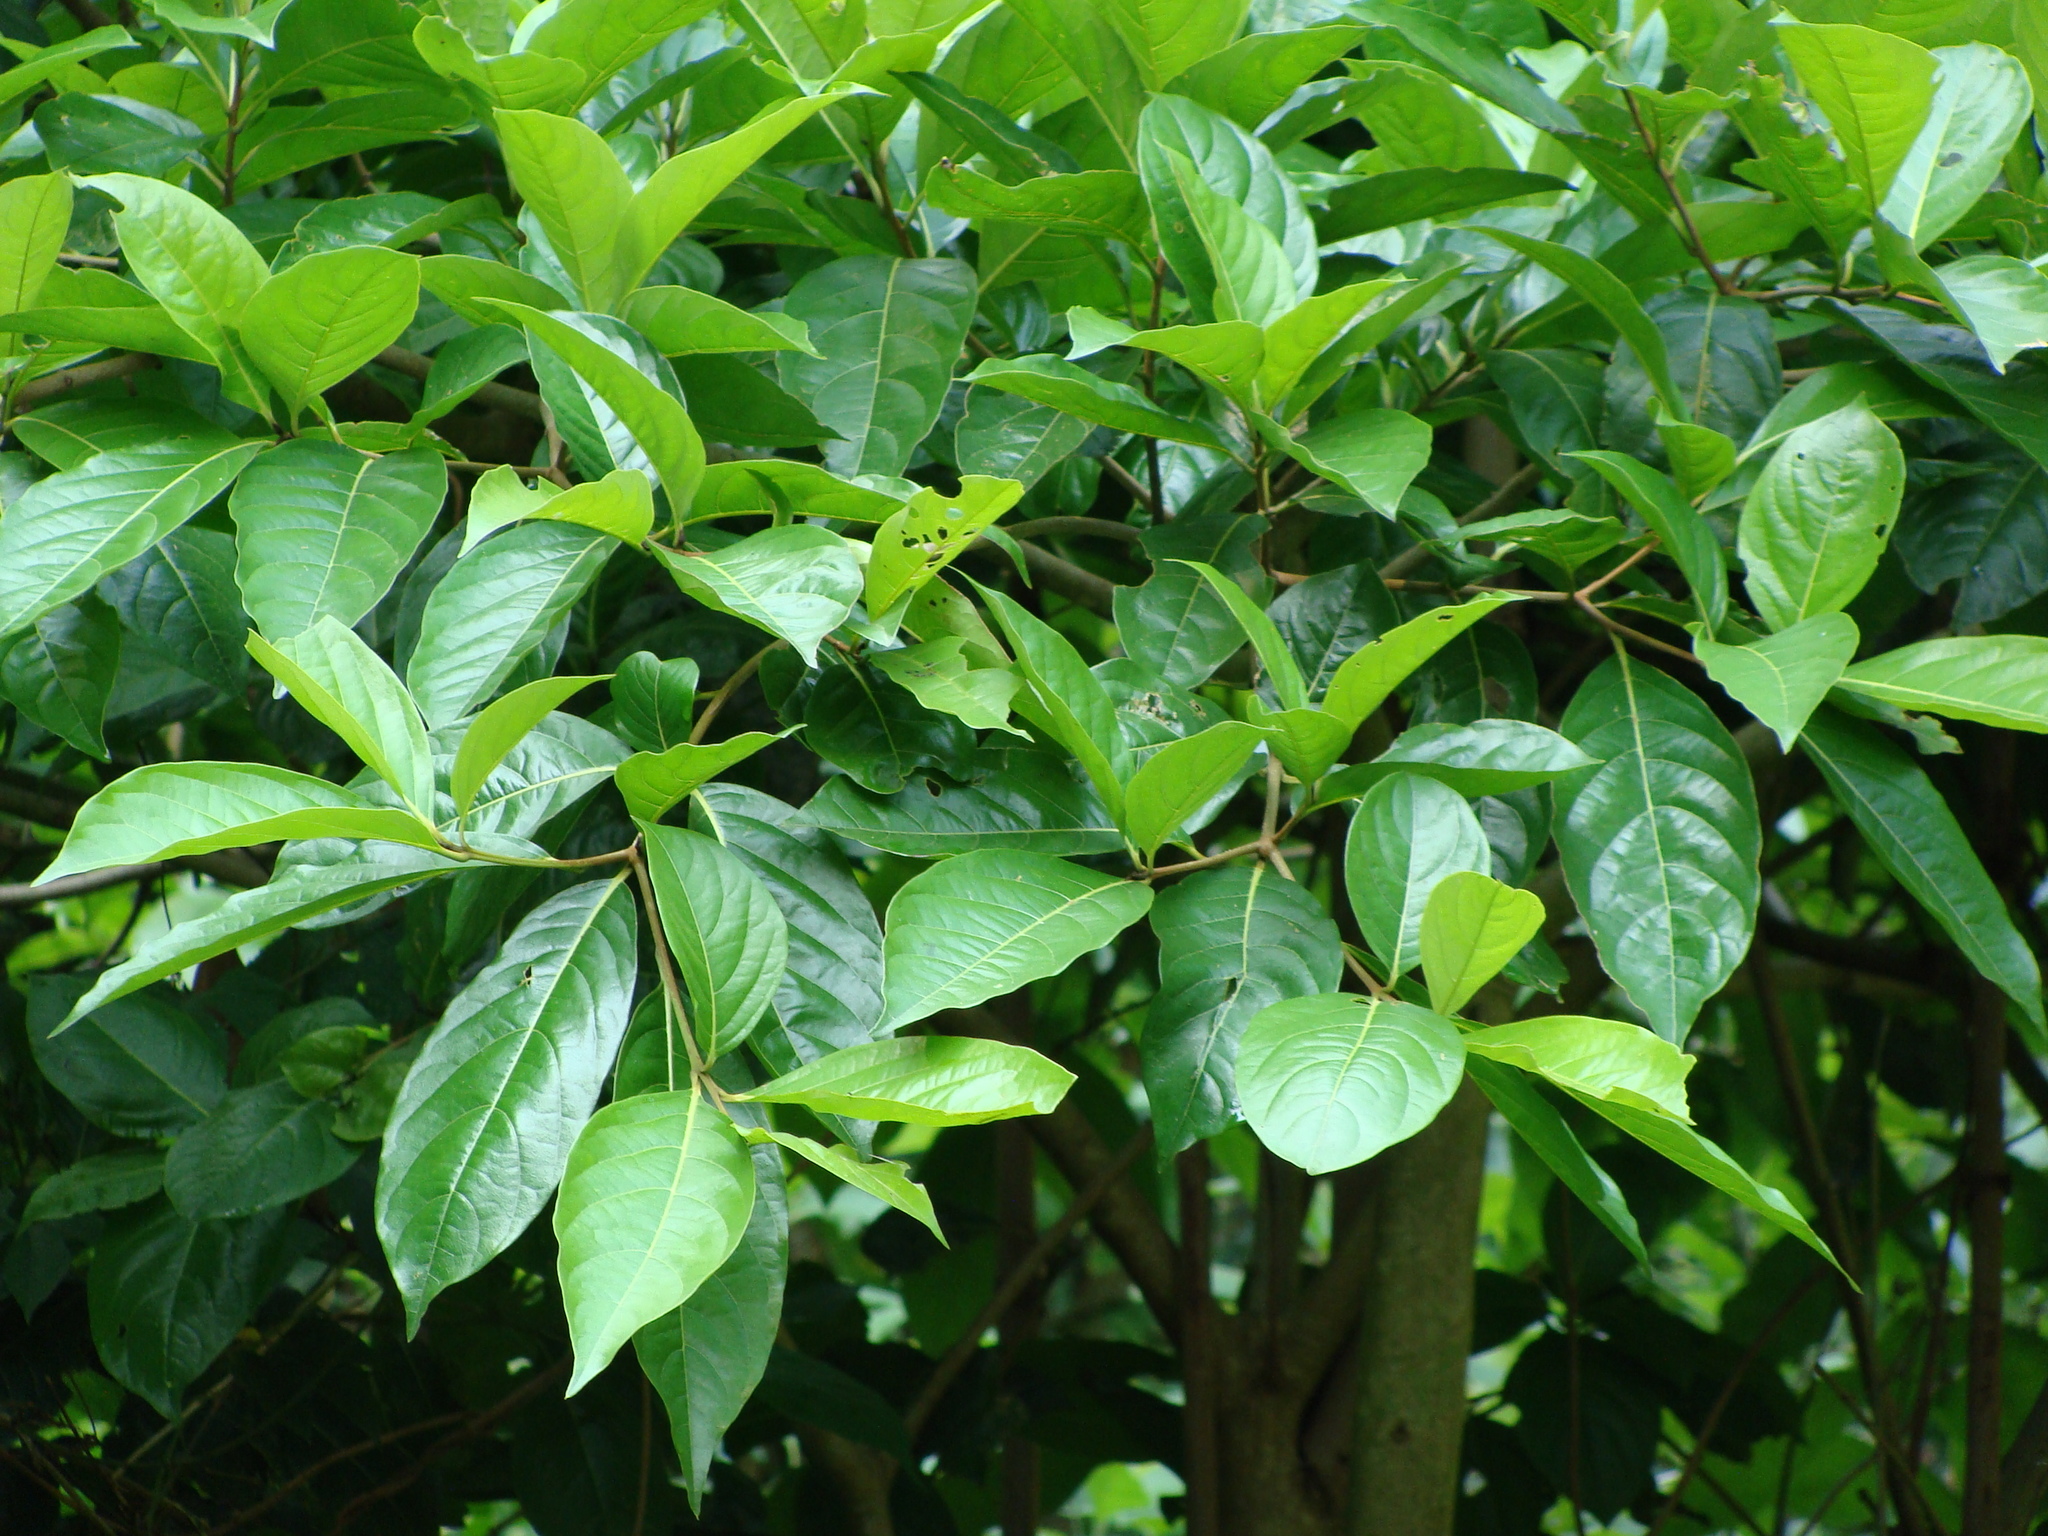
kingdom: Plantae
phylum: Tracheophyta
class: Magnoliopsida
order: Boraginales
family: Cordiaceae
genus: Cordia
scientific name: Cordia collococca
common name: Clammy cherry
